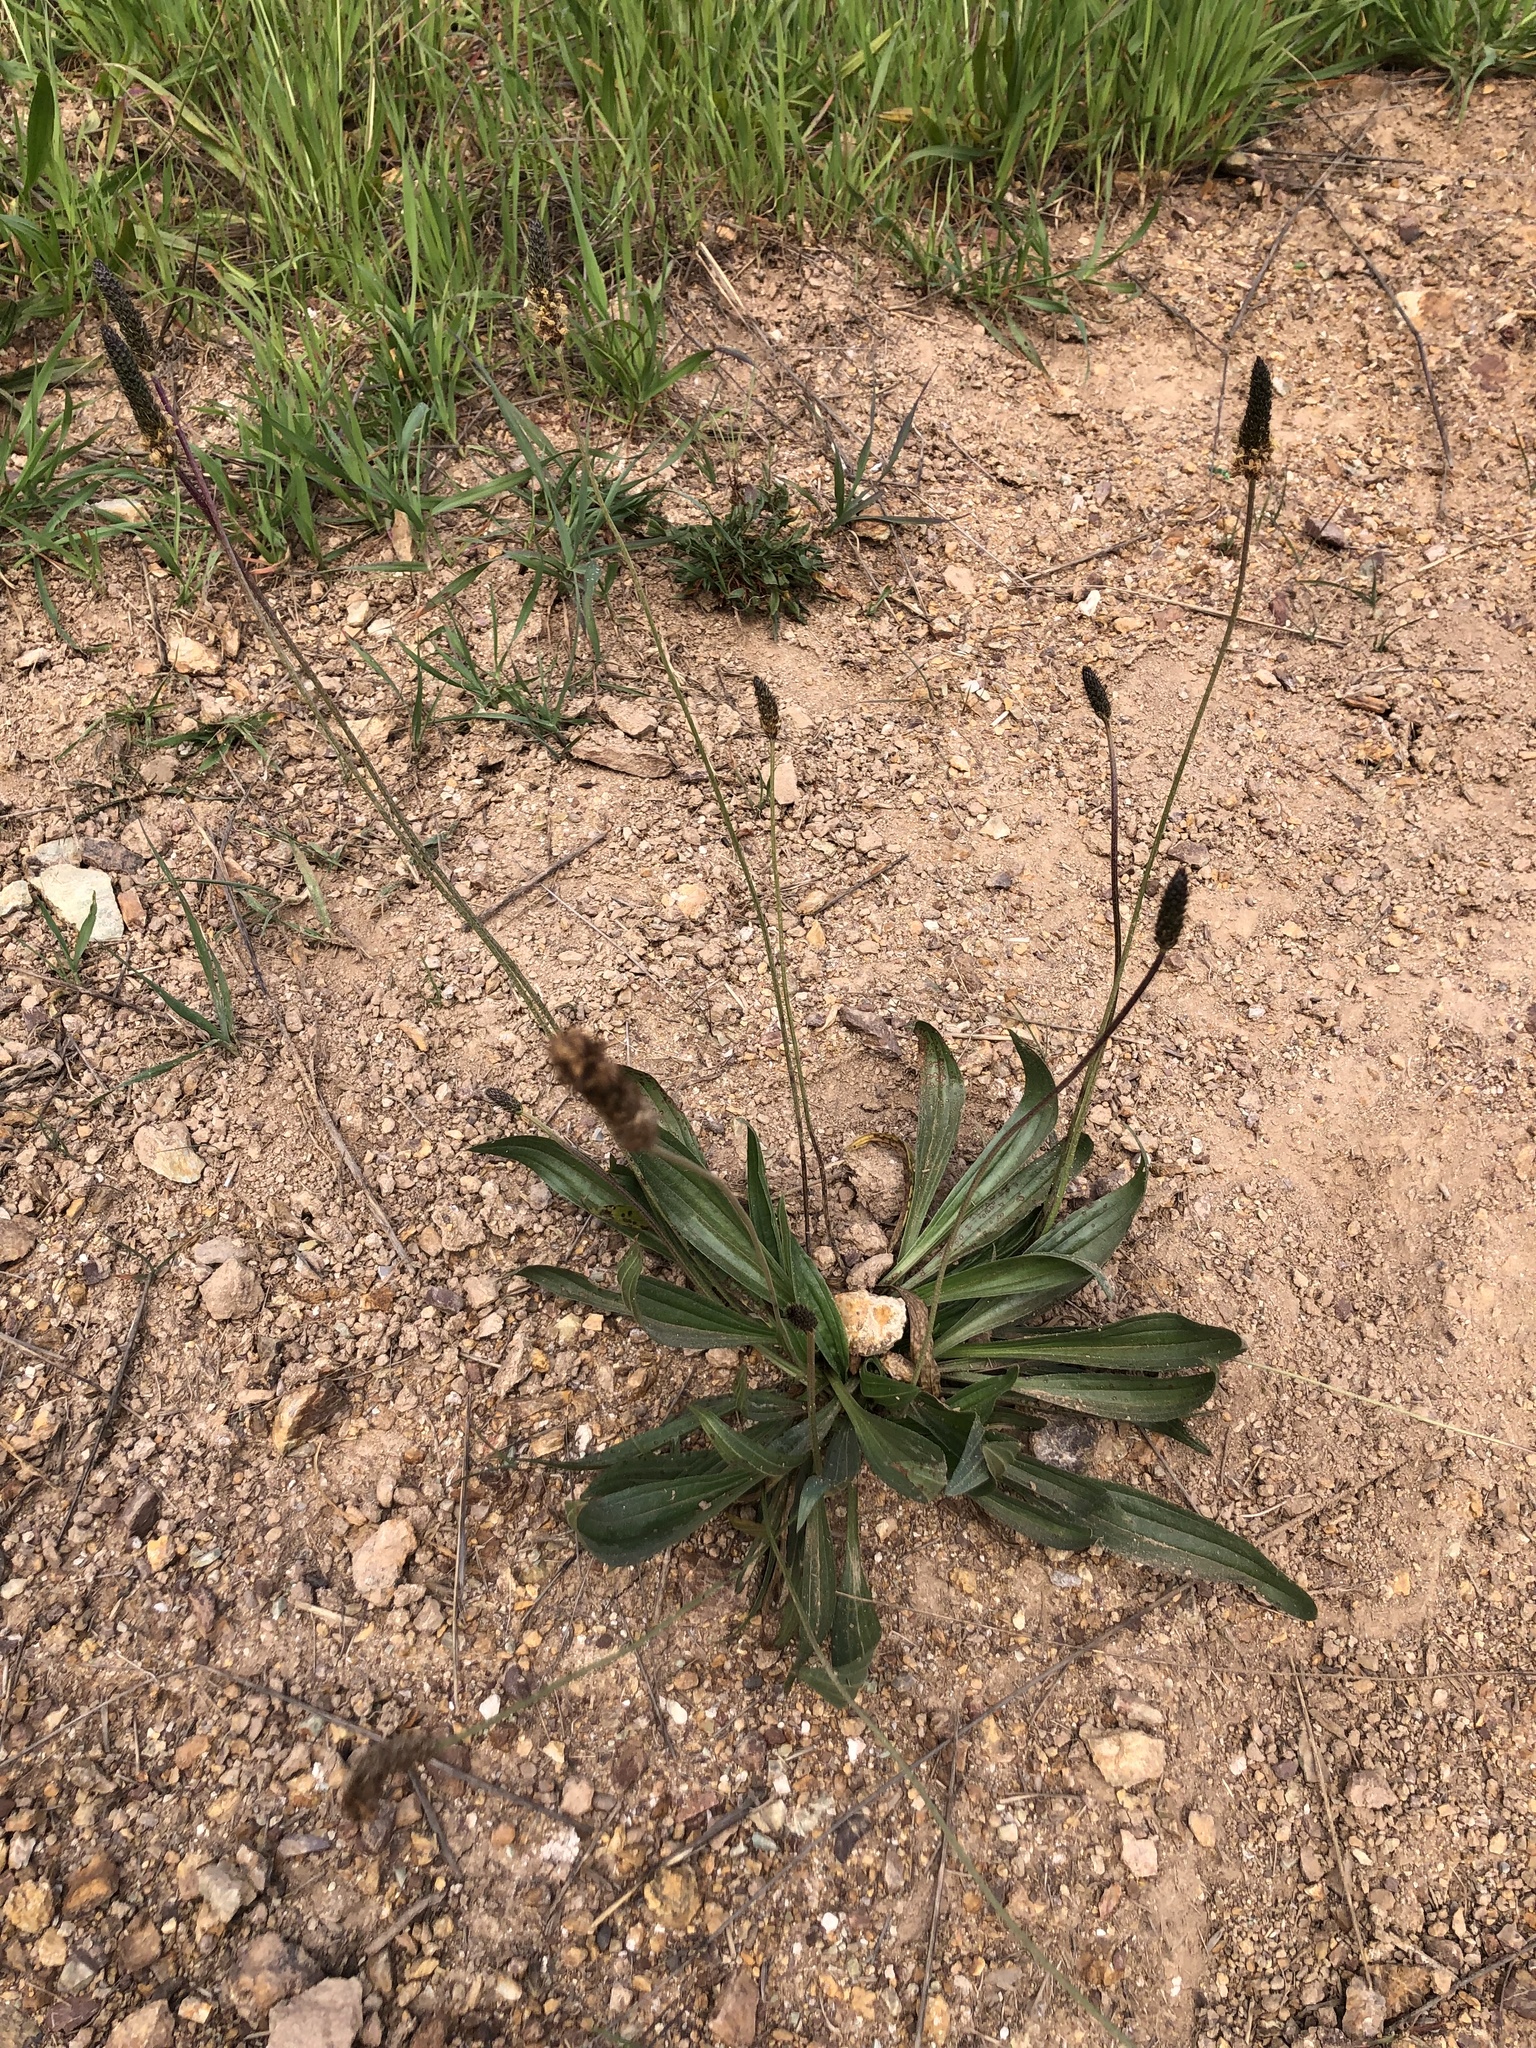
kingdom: Plantae
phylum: Tracheophyta
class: Magnoliopsida
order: Lamiales
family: Plantaginaceae
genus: Plantago
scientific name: Plantago lanceolata
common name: Ribwort plantain
